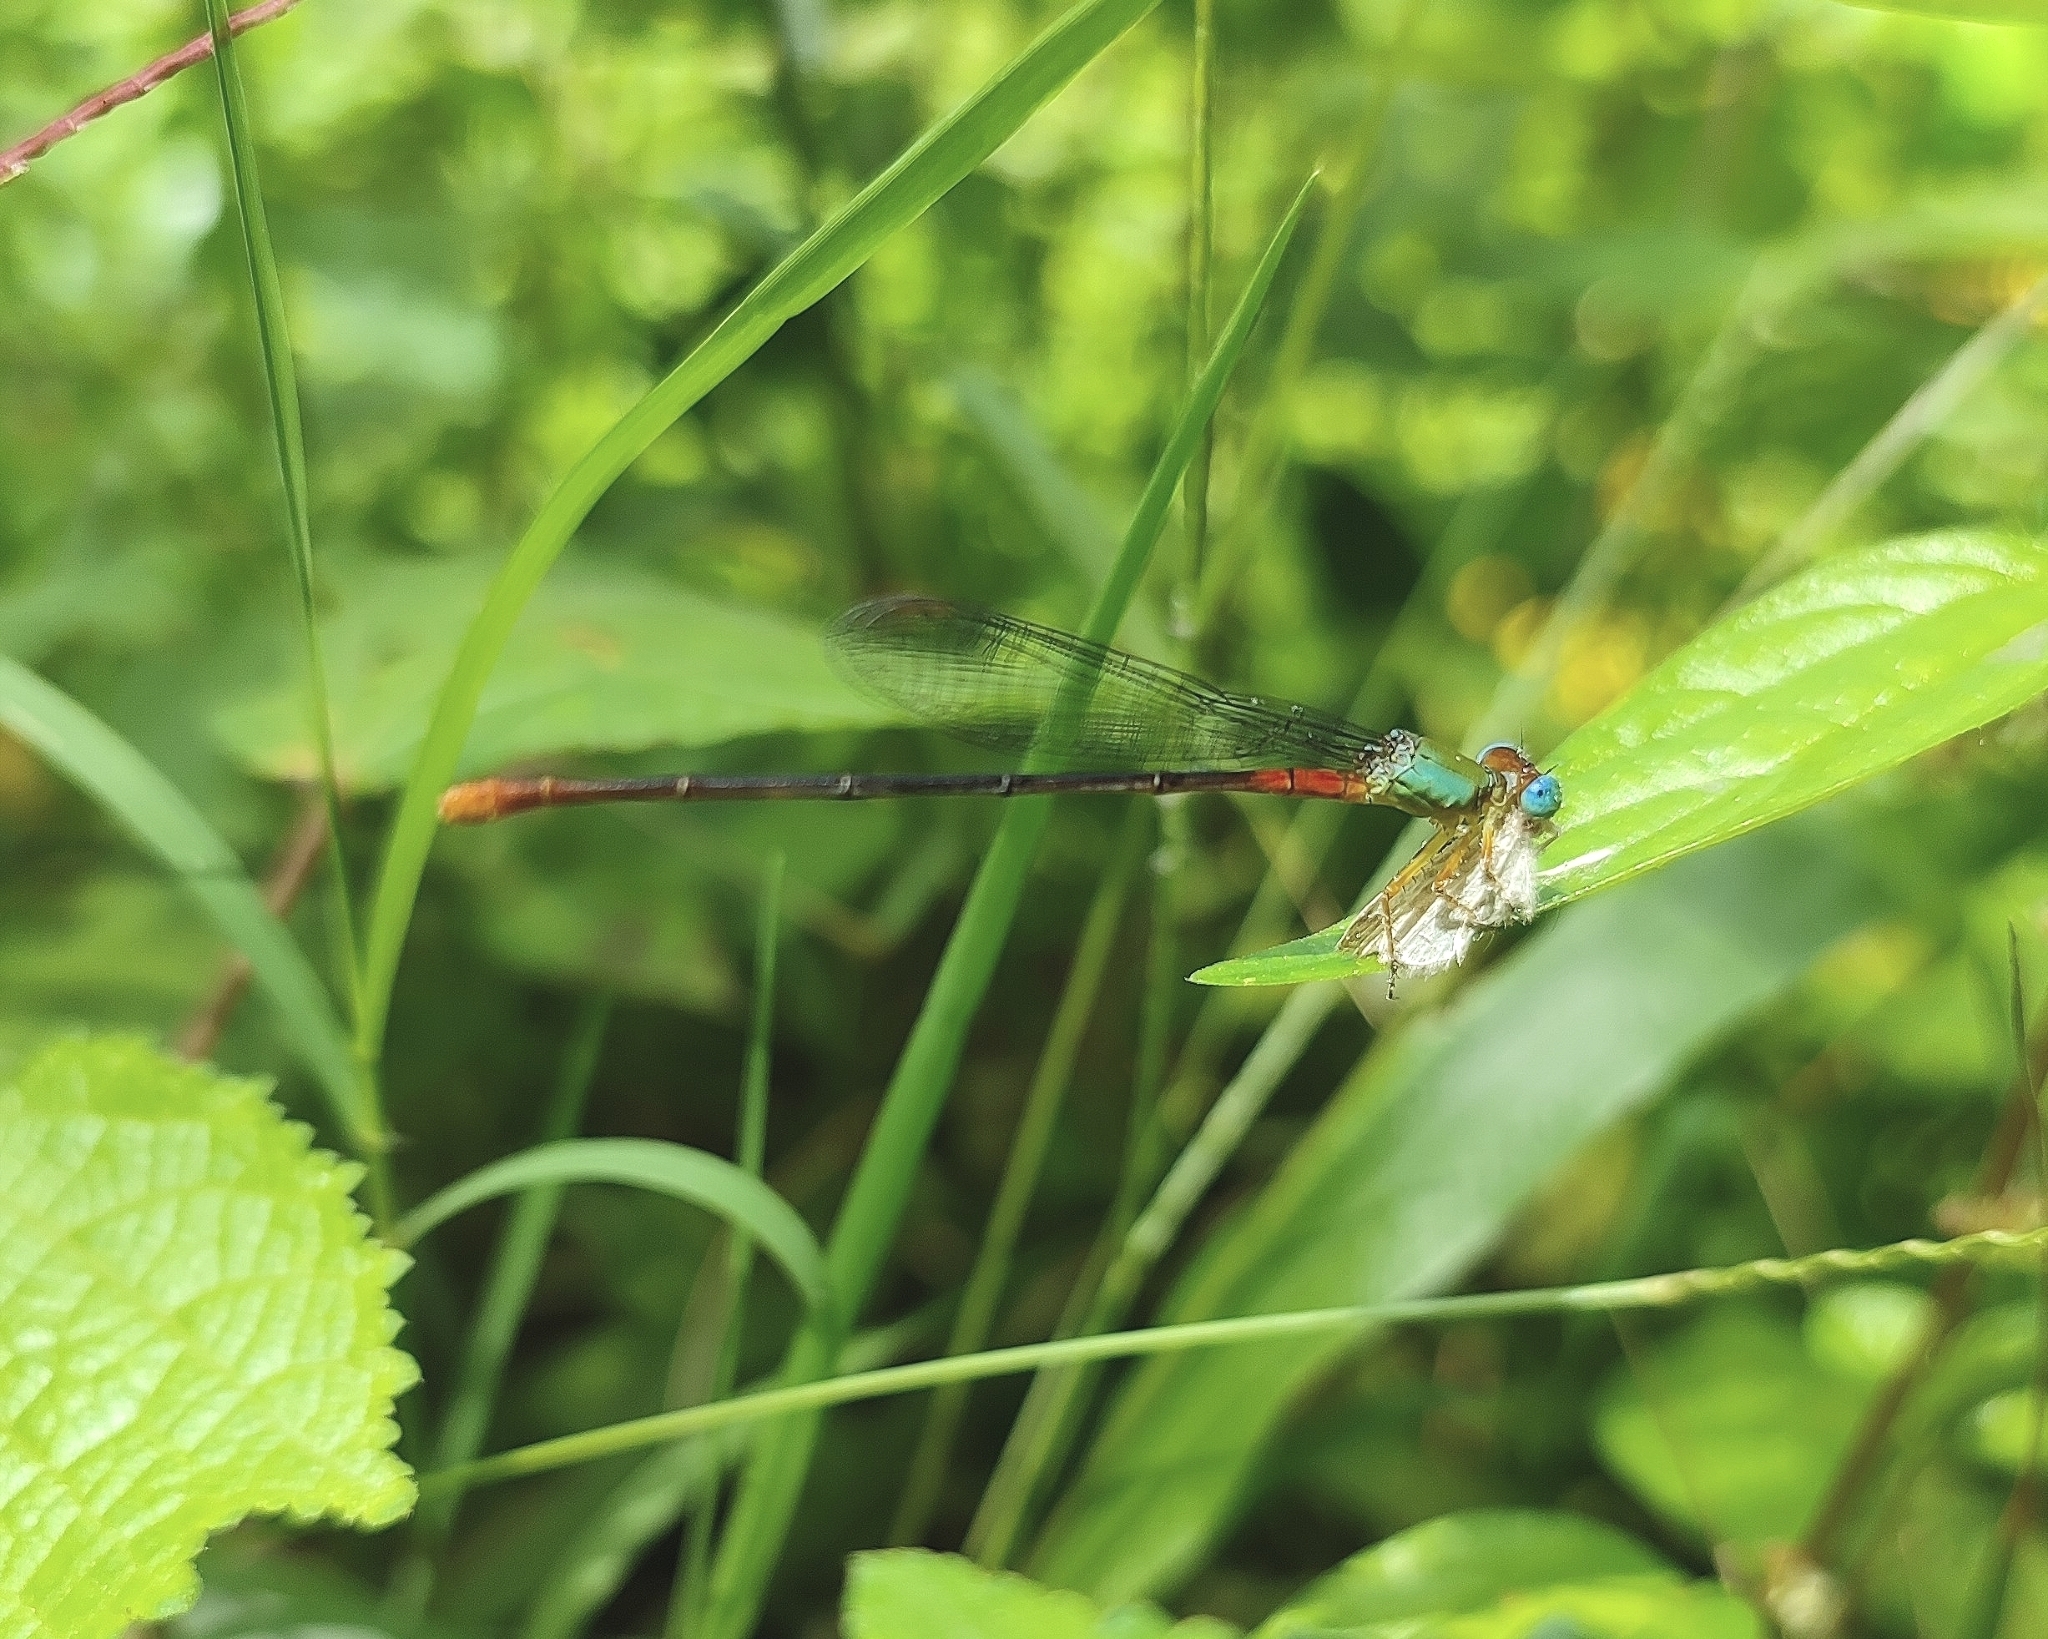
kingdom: Animalia
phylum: Arthropoda
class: Insecta
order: Odonata
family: Coenagrionidae
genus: Ceriagrion
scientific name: Ceriagrion cerinorubellum
